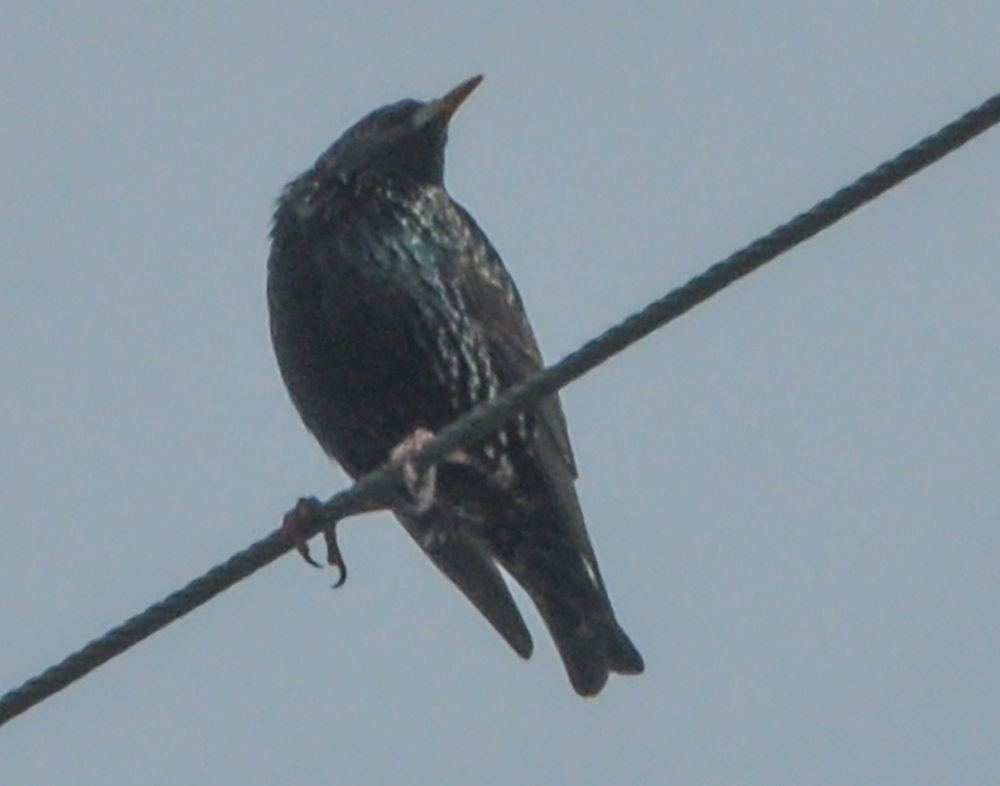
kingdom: Animalia
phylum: Chordata
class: Aves
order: Passeriformes
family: Sturnidae
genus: Sturnus
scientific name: Sturnus vulgaris
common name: Common starling
